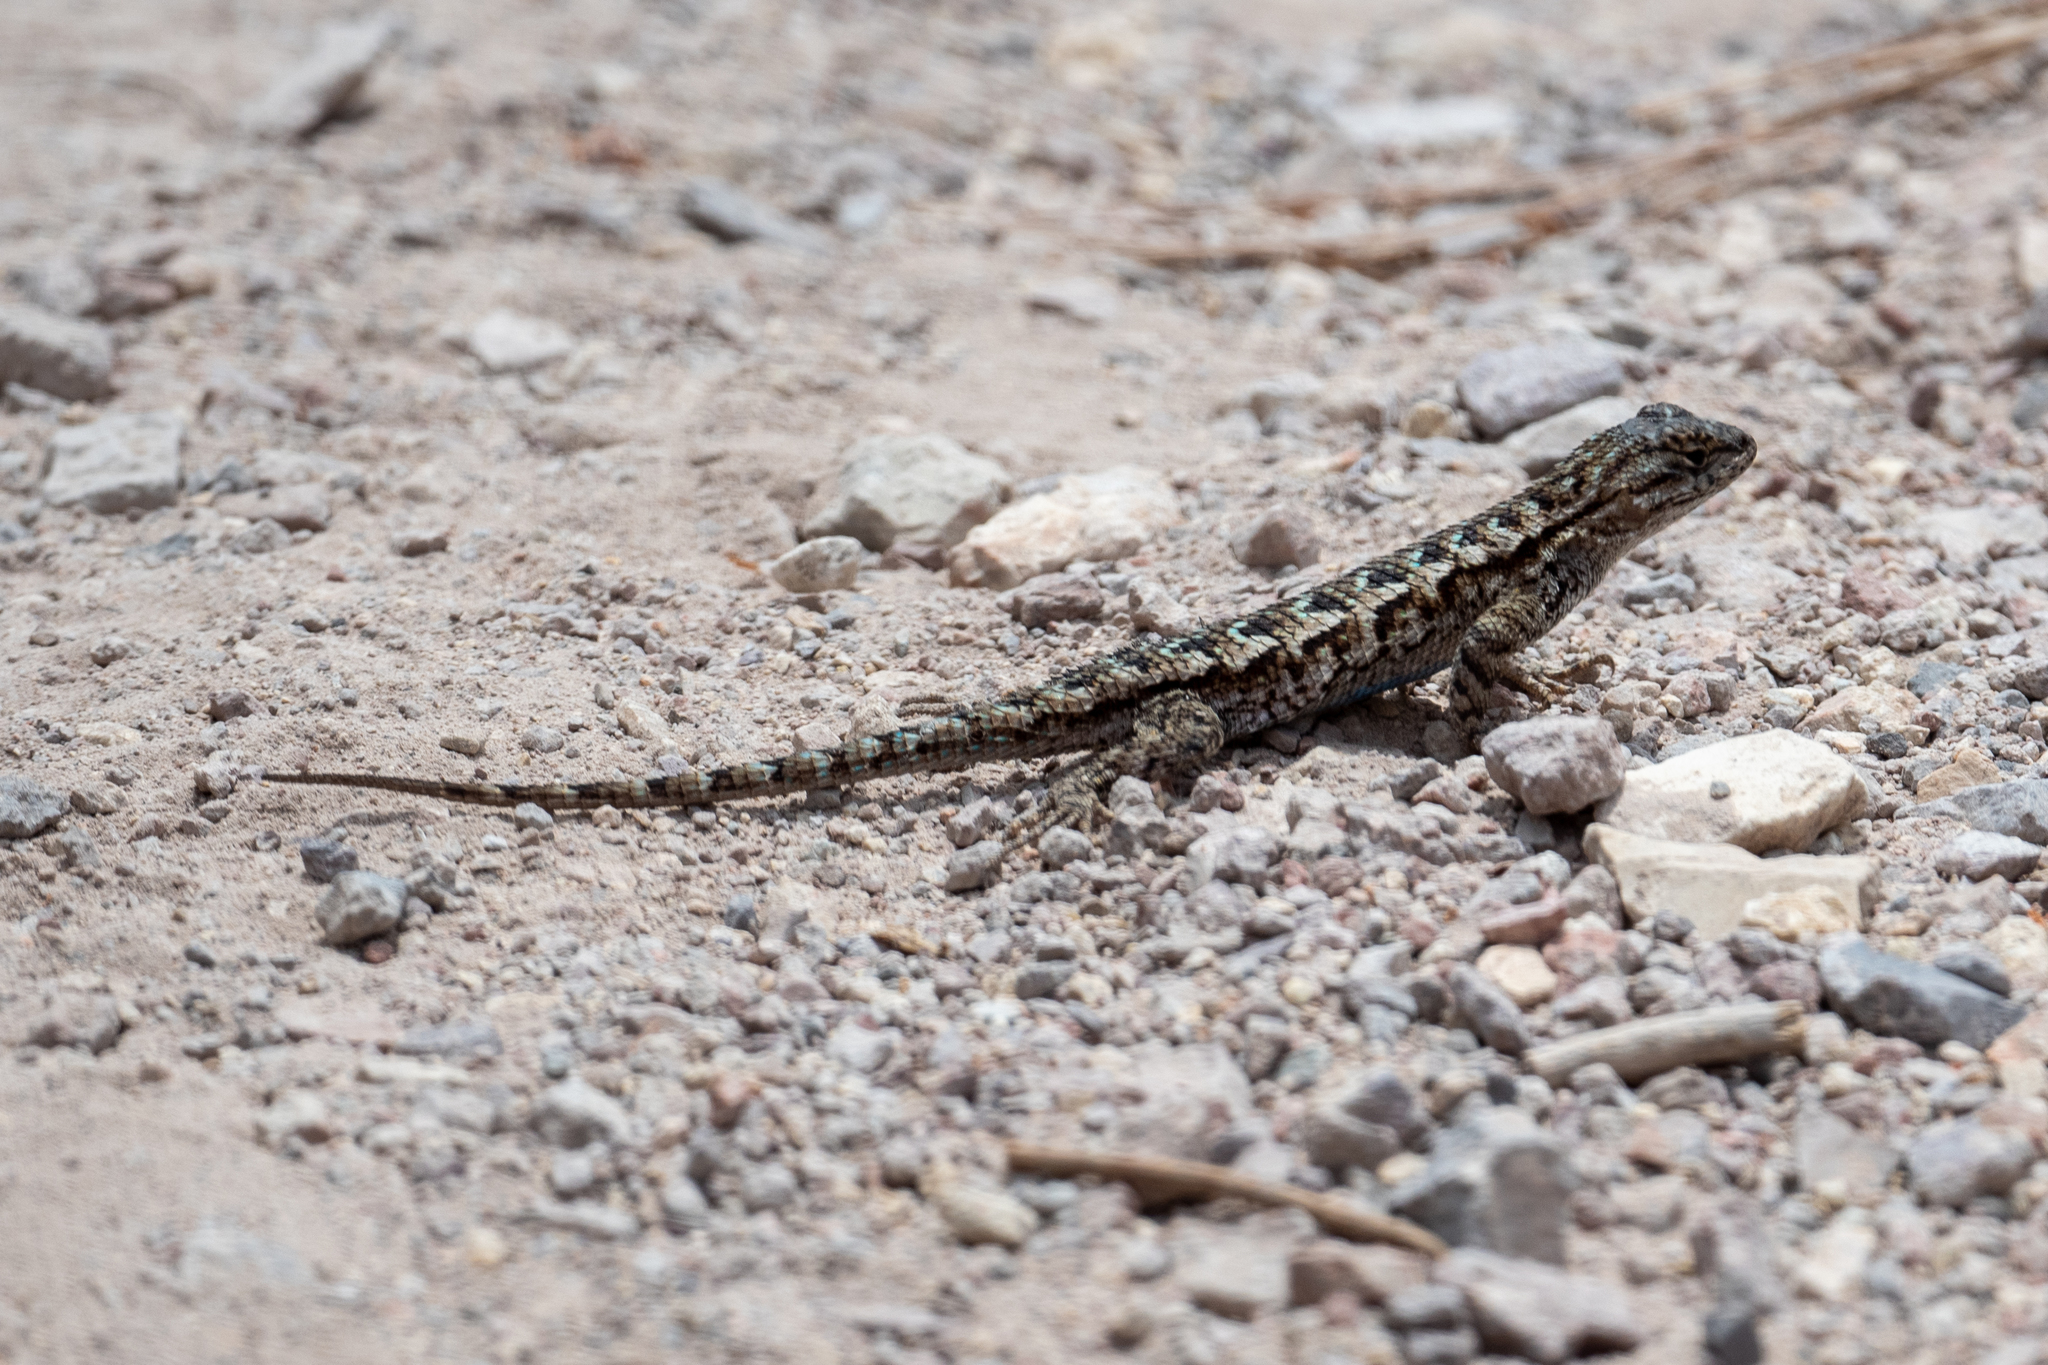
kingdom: Animalia
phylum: Chordata
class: Squamata
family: Phrynosomatidae
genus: Sceloporus
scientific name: Sceloporus occidentalis
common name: Western fence lizard
